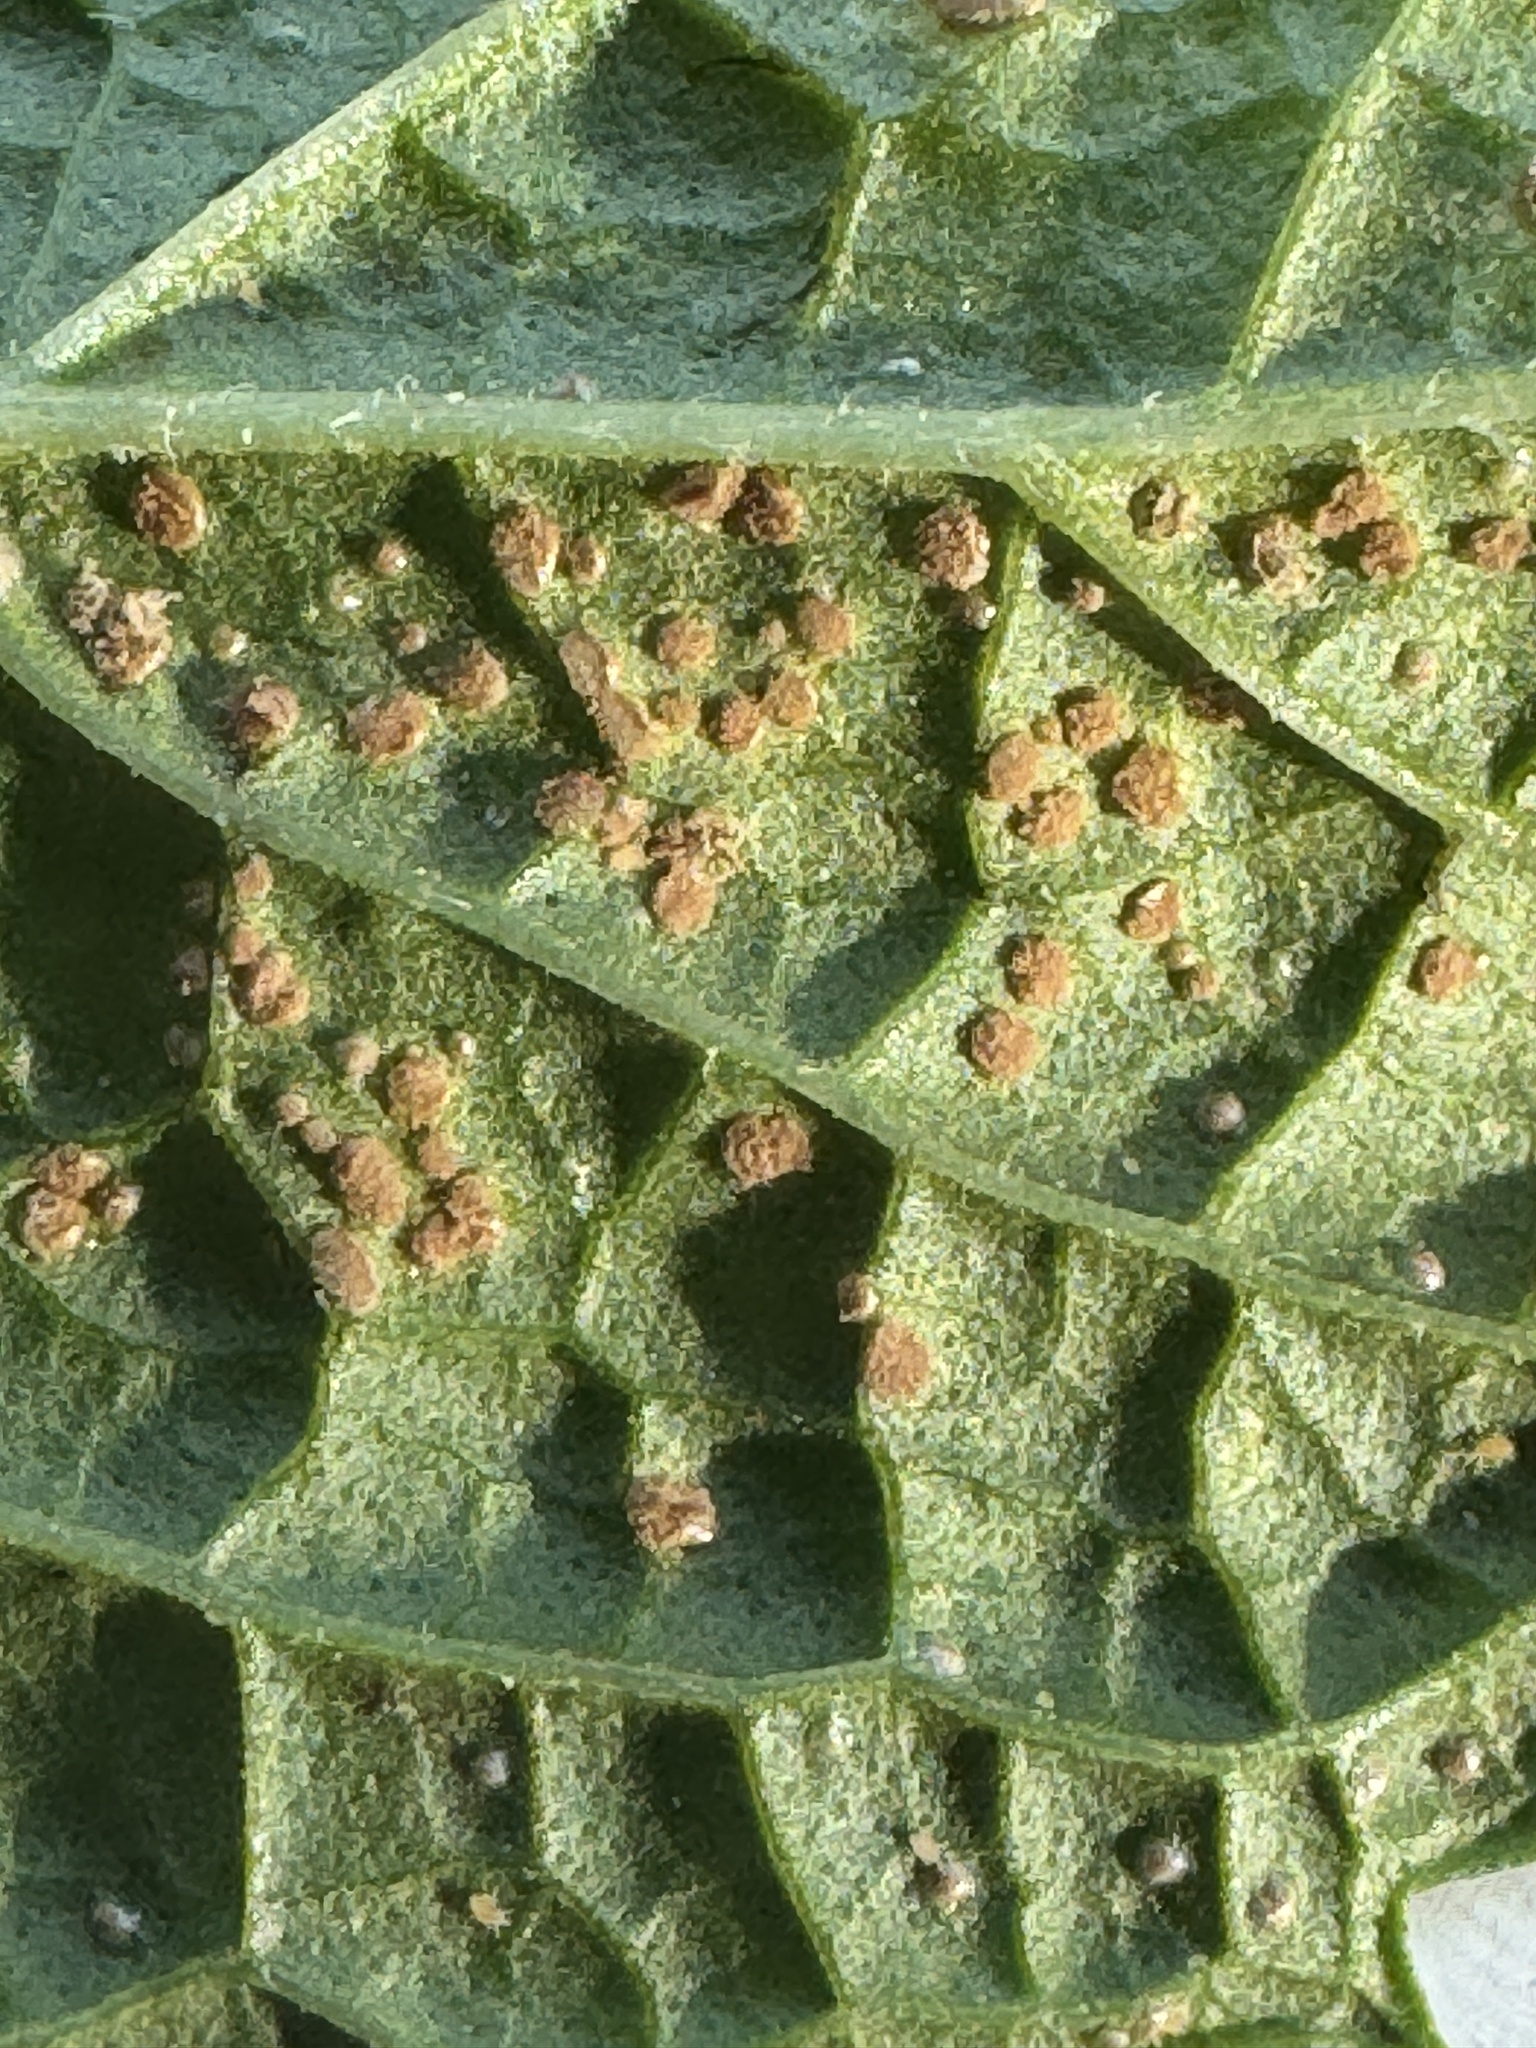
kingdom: Fungi
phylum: Basidiomycota
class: Pucciniomycetes
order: Pucciniales
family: Pucciniaceae
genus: Puccinia
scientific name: Puccinia menthae
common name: Mint rust
